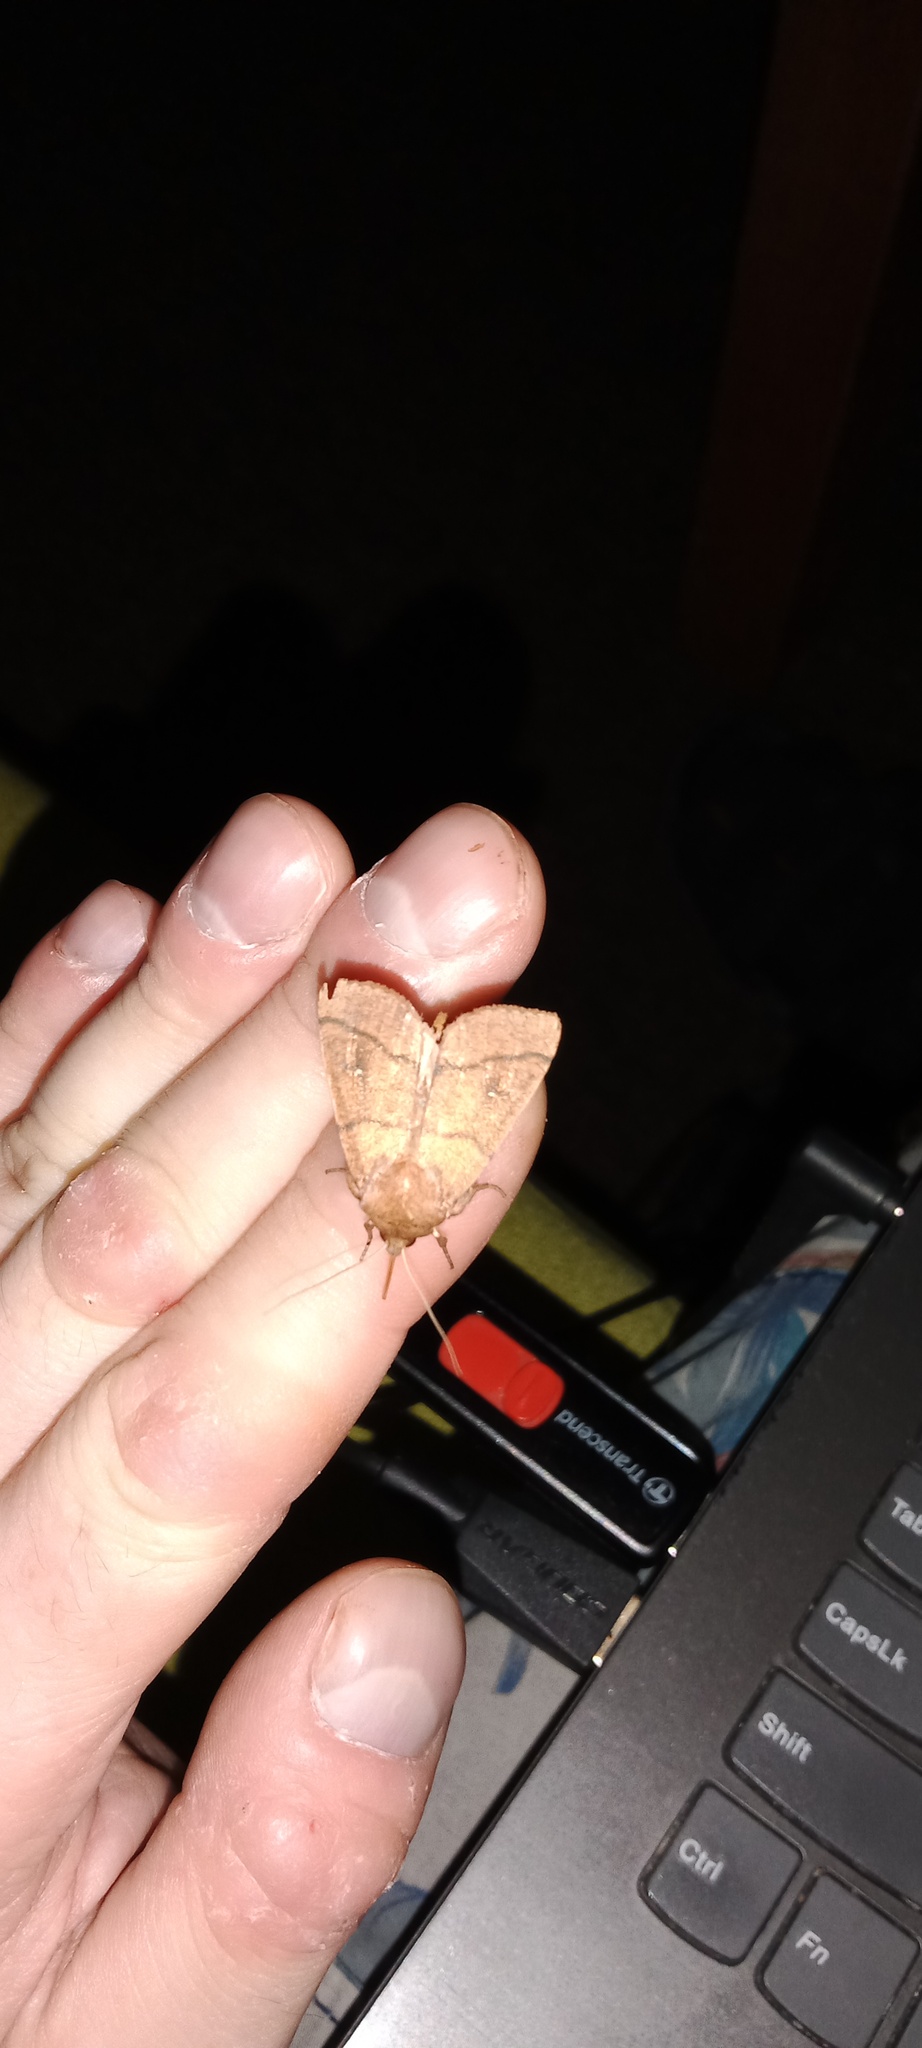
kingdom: Animalia
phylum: Arthropoda
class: Insecta
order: Lepidoptera
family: Noctuidae
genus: Mythimna
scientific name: Mythimna turca
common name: Double line
